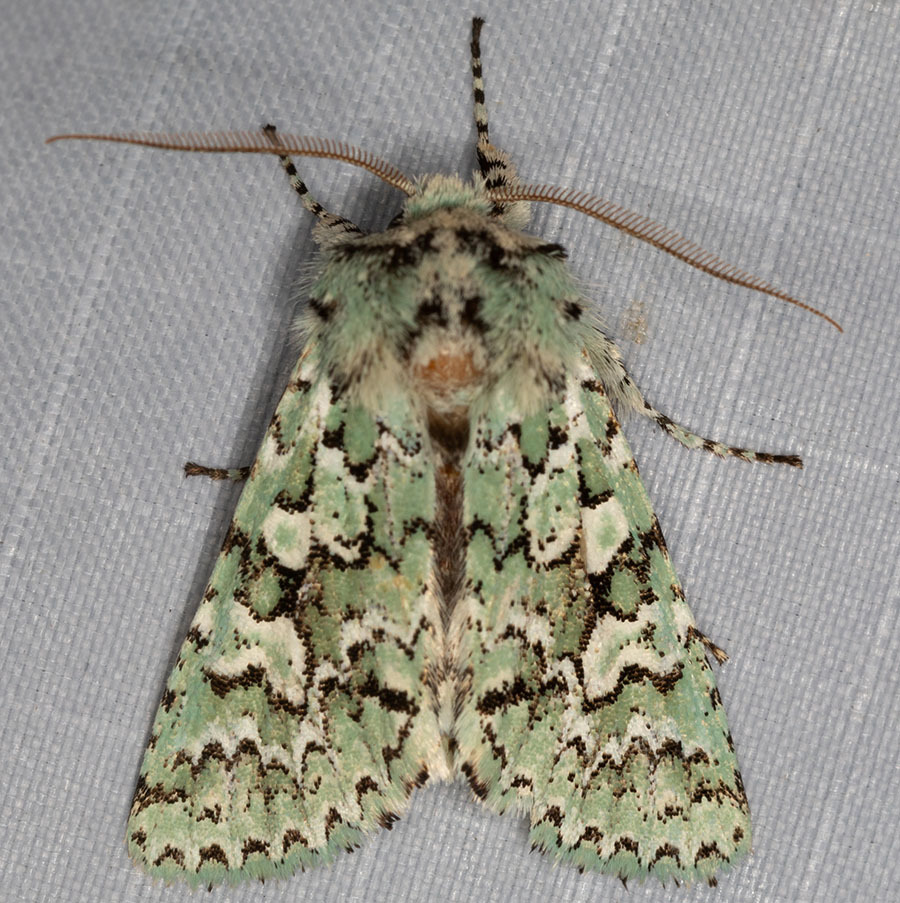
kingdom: Animalia
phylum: Arthropoda
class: Insecta
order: Lepidoptera
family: Noctuidae
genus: Feralia
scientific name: Feralia februalis
